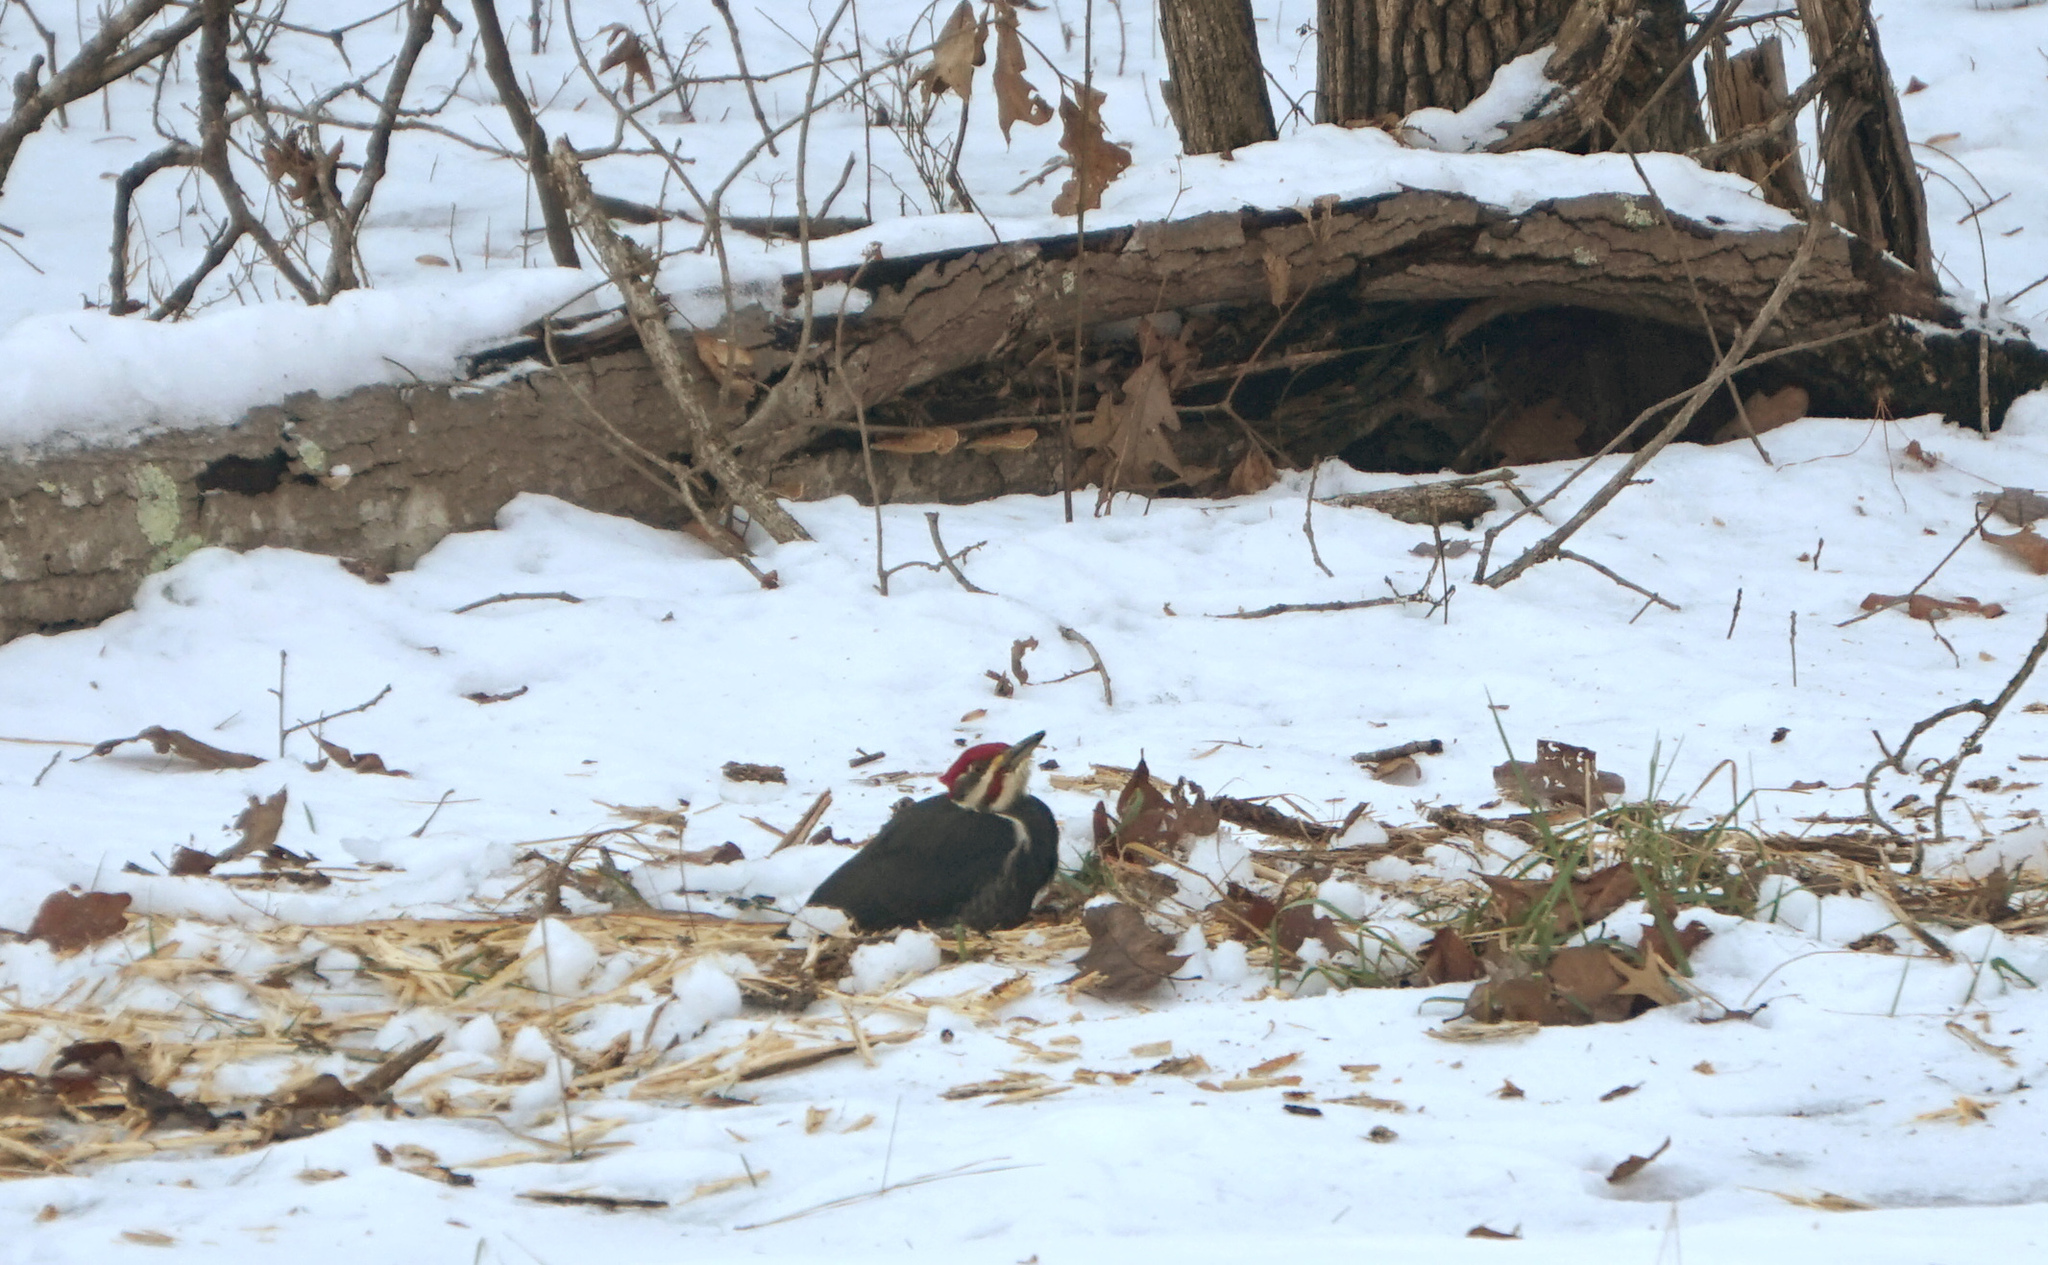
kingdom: Animalia
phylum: Chordata
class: Aves
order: Piciformes
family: Picidae
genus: Dryocopus
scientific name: Dryocopus pileatus
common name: Pileated woodpecker
